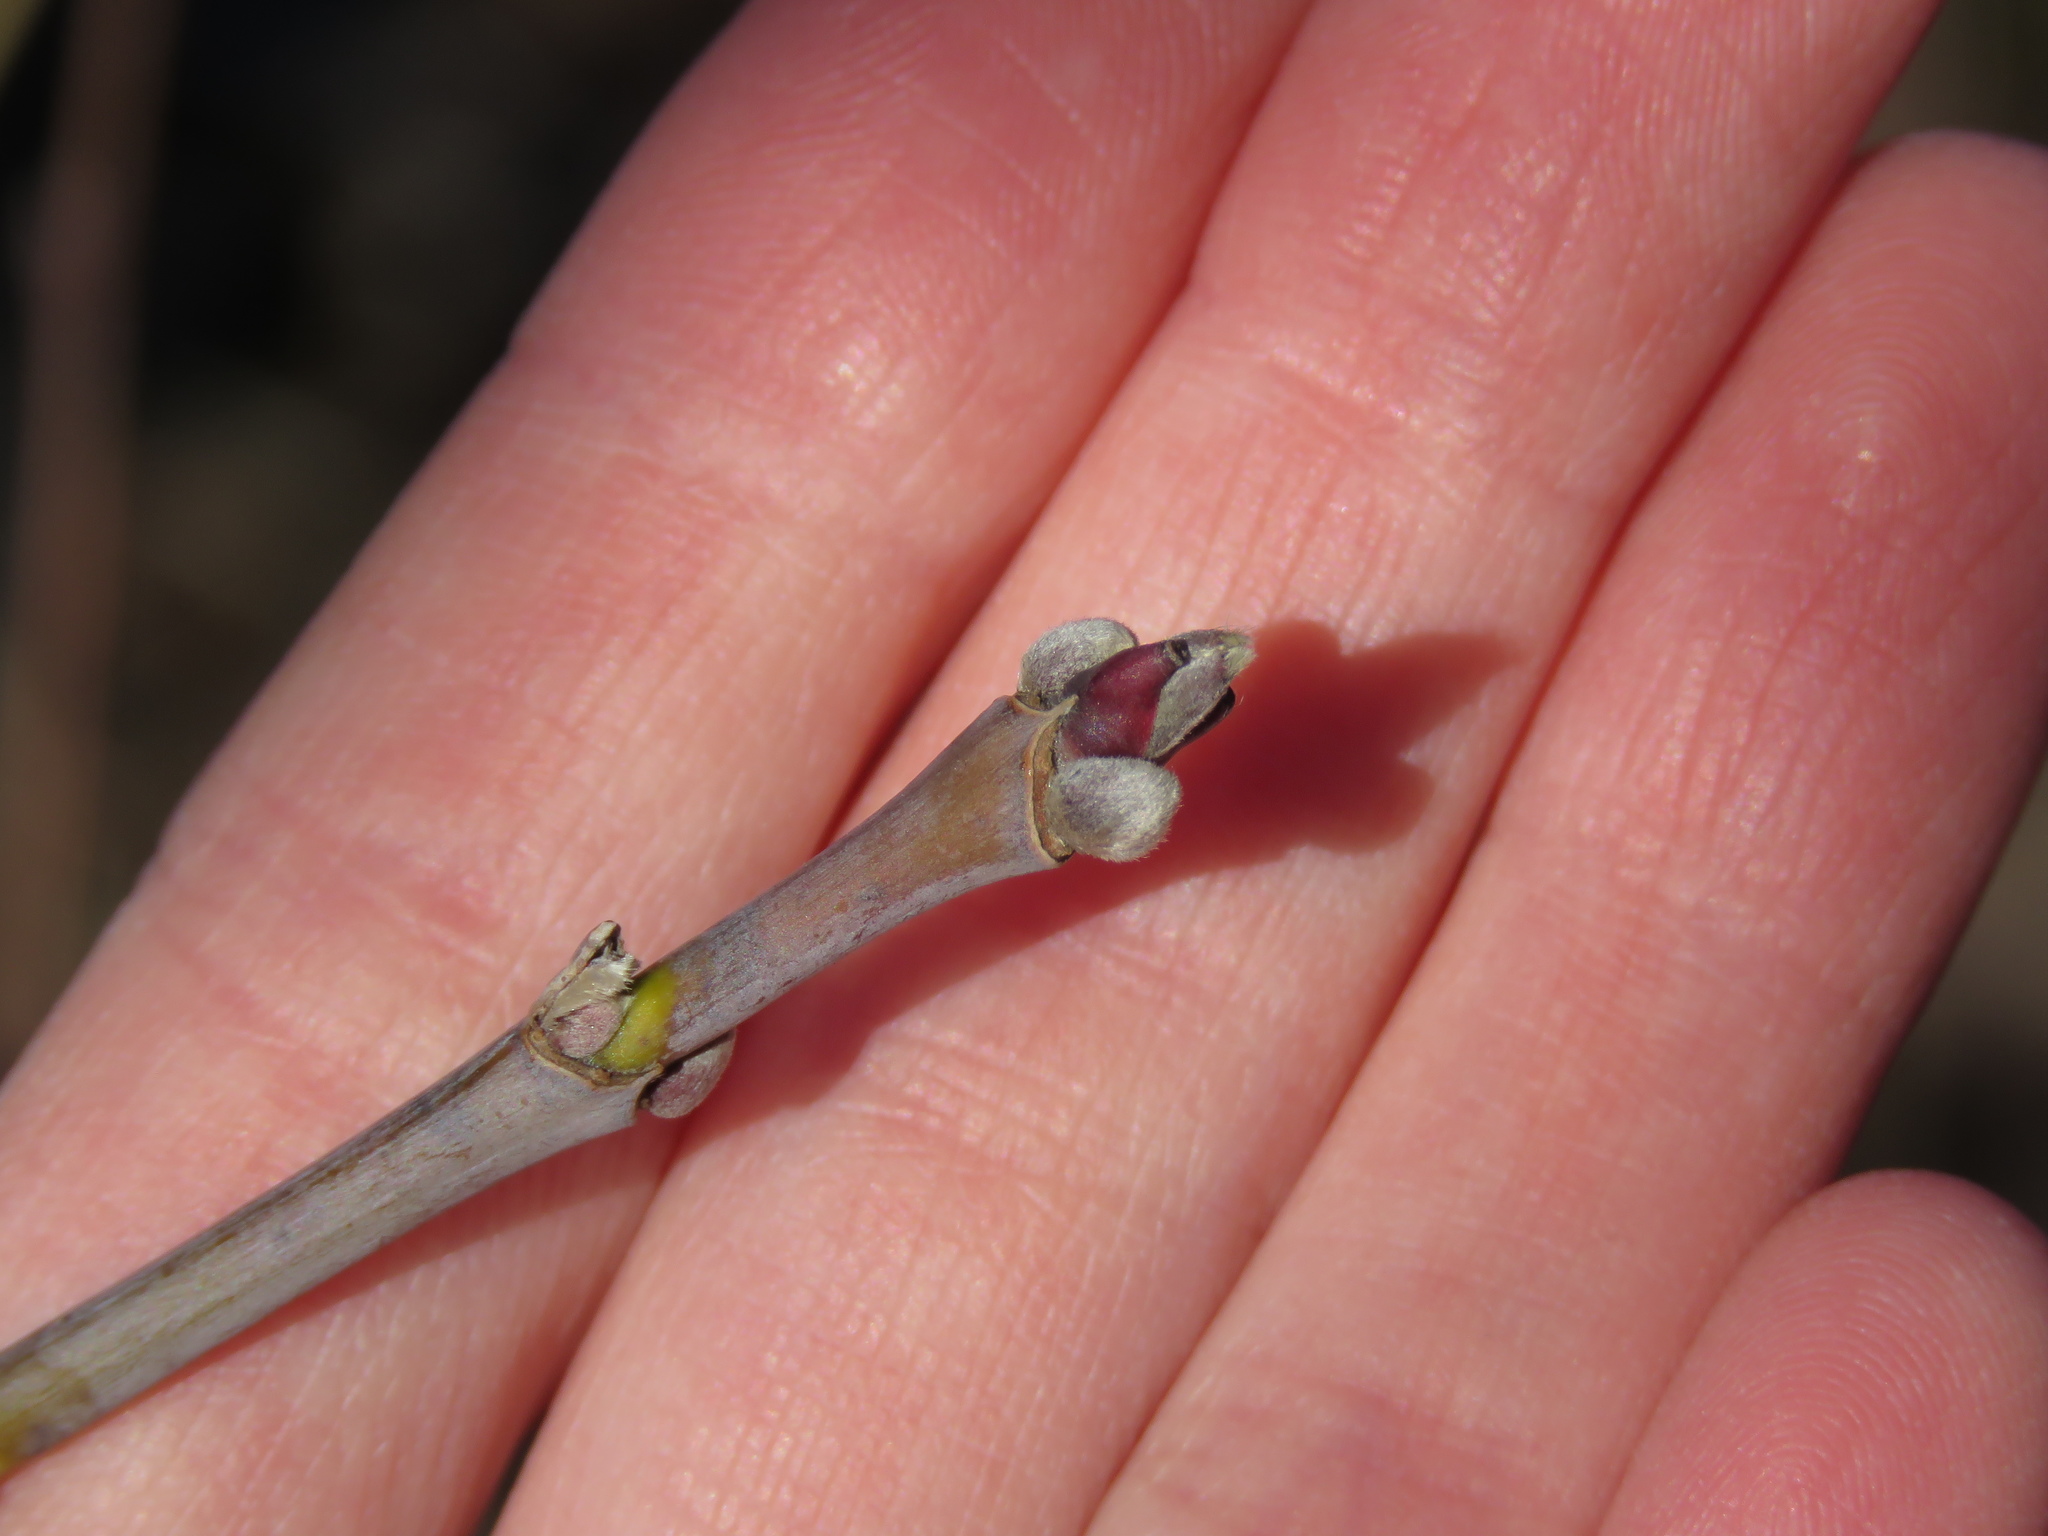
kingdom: Plantae
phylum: Tracheophyta
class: Magnoliopsida
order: Sapindales
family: Sapindaceae
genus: Acer
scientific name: Acer negundo
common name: Ashleaf maple
